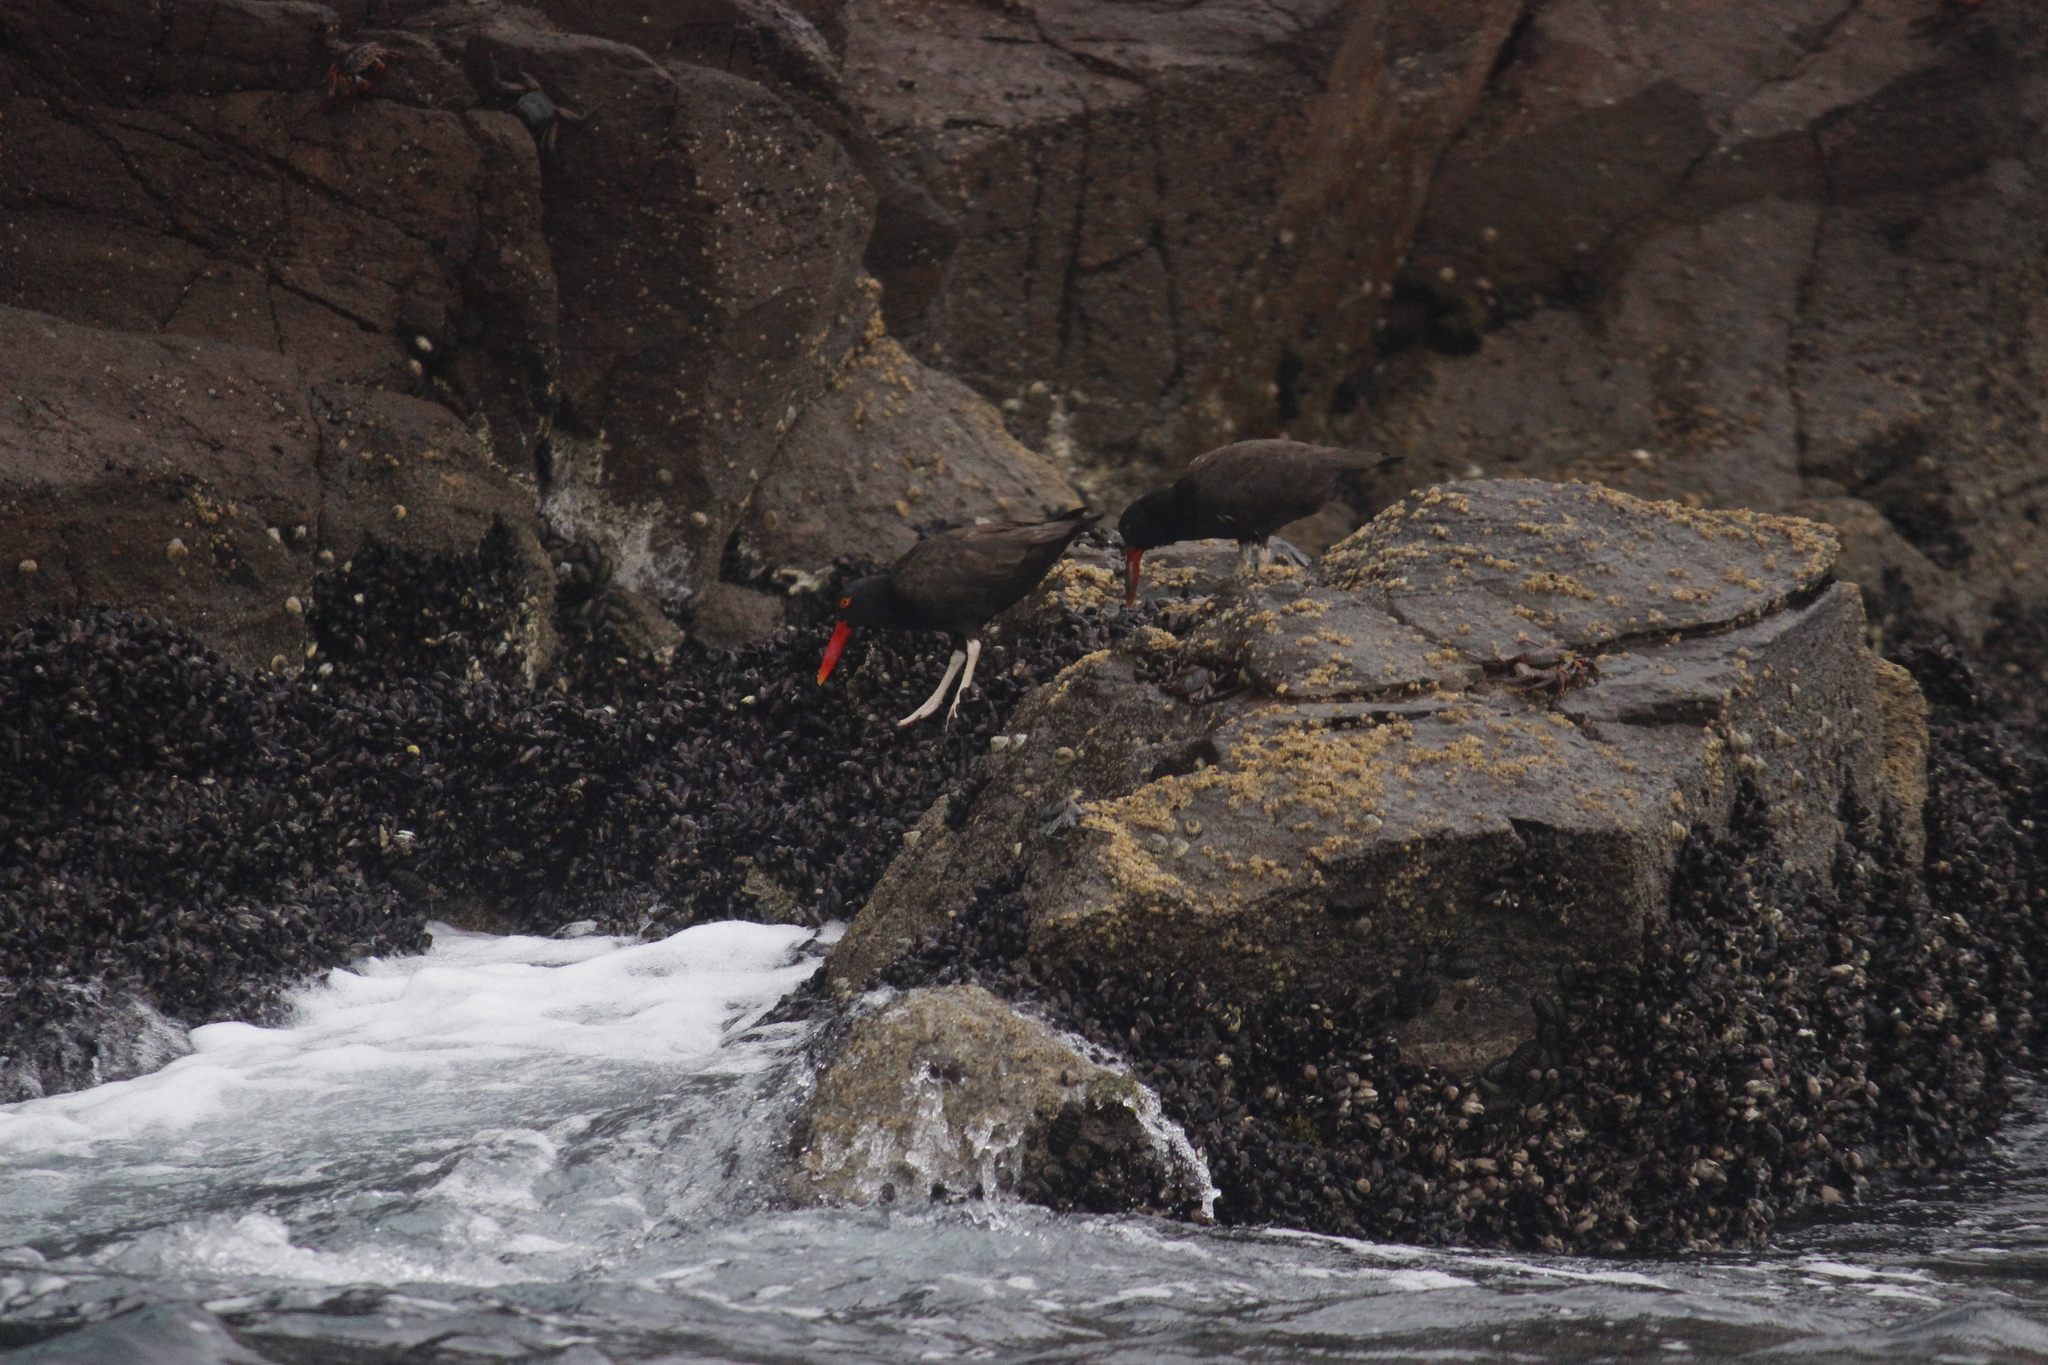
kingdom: Animalia
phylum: Chordata
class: Aves
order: Charadriiformes
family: Haematopodidae
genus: Haematopus
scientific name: Haematopus ater
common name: Blackish oystercatcher
